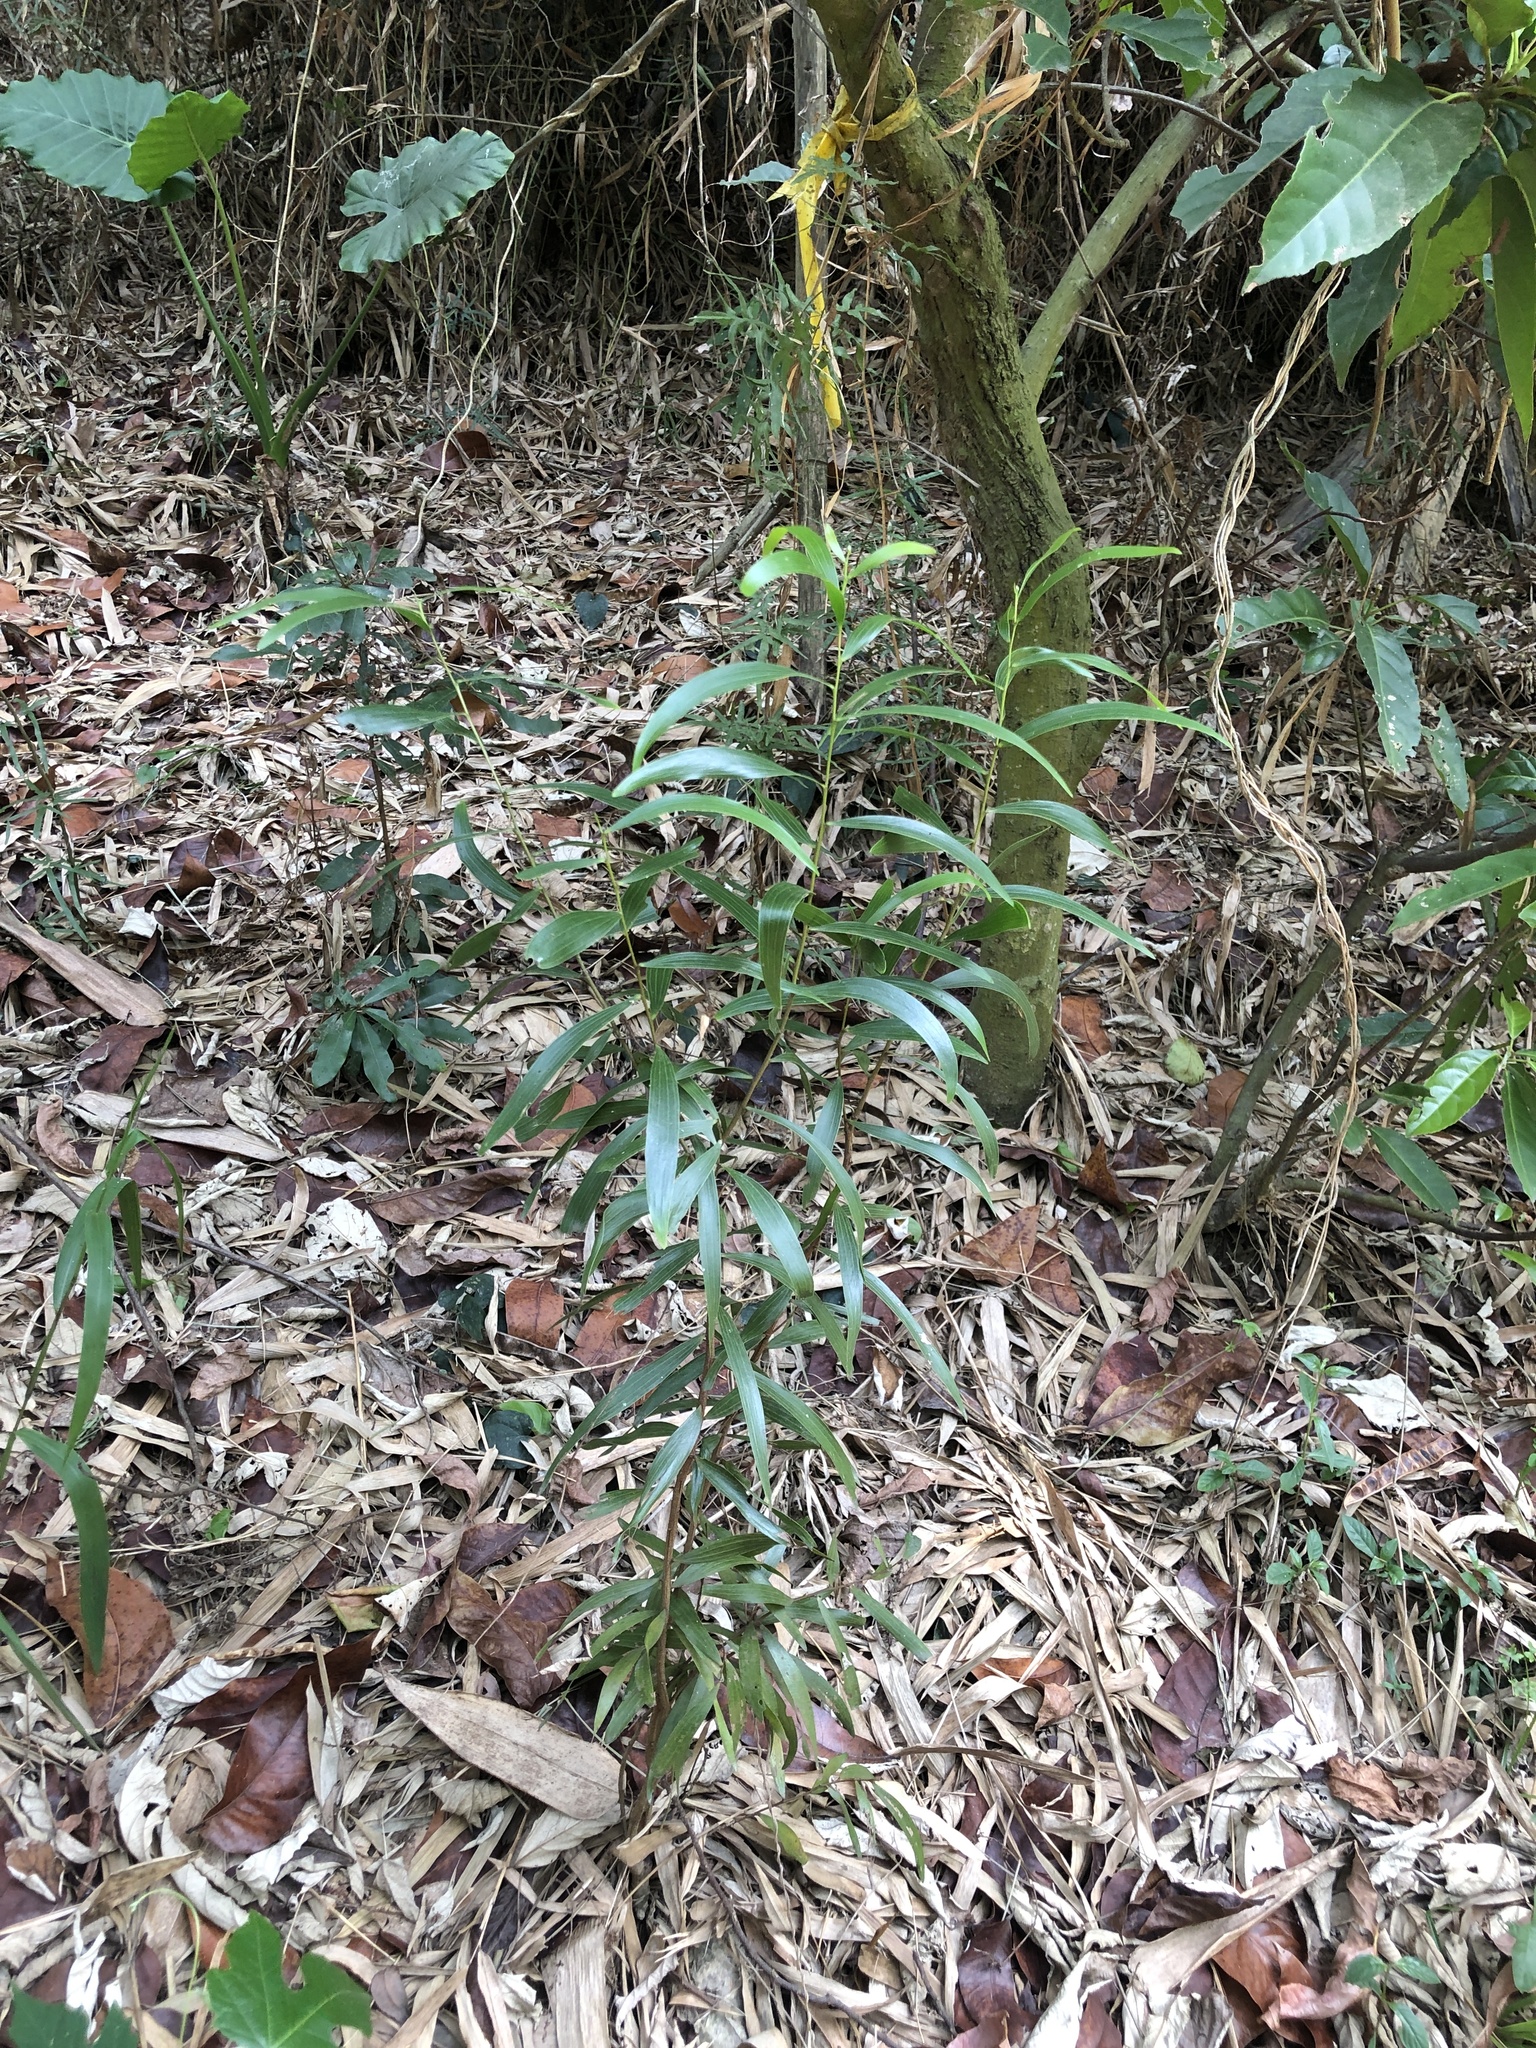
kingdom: Plantae
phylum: Tracheophyta
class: Magnoliopsida
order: Fabales
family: Fabaceae
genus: Acacia
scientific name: Acacia confusa
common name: Formosan koa
